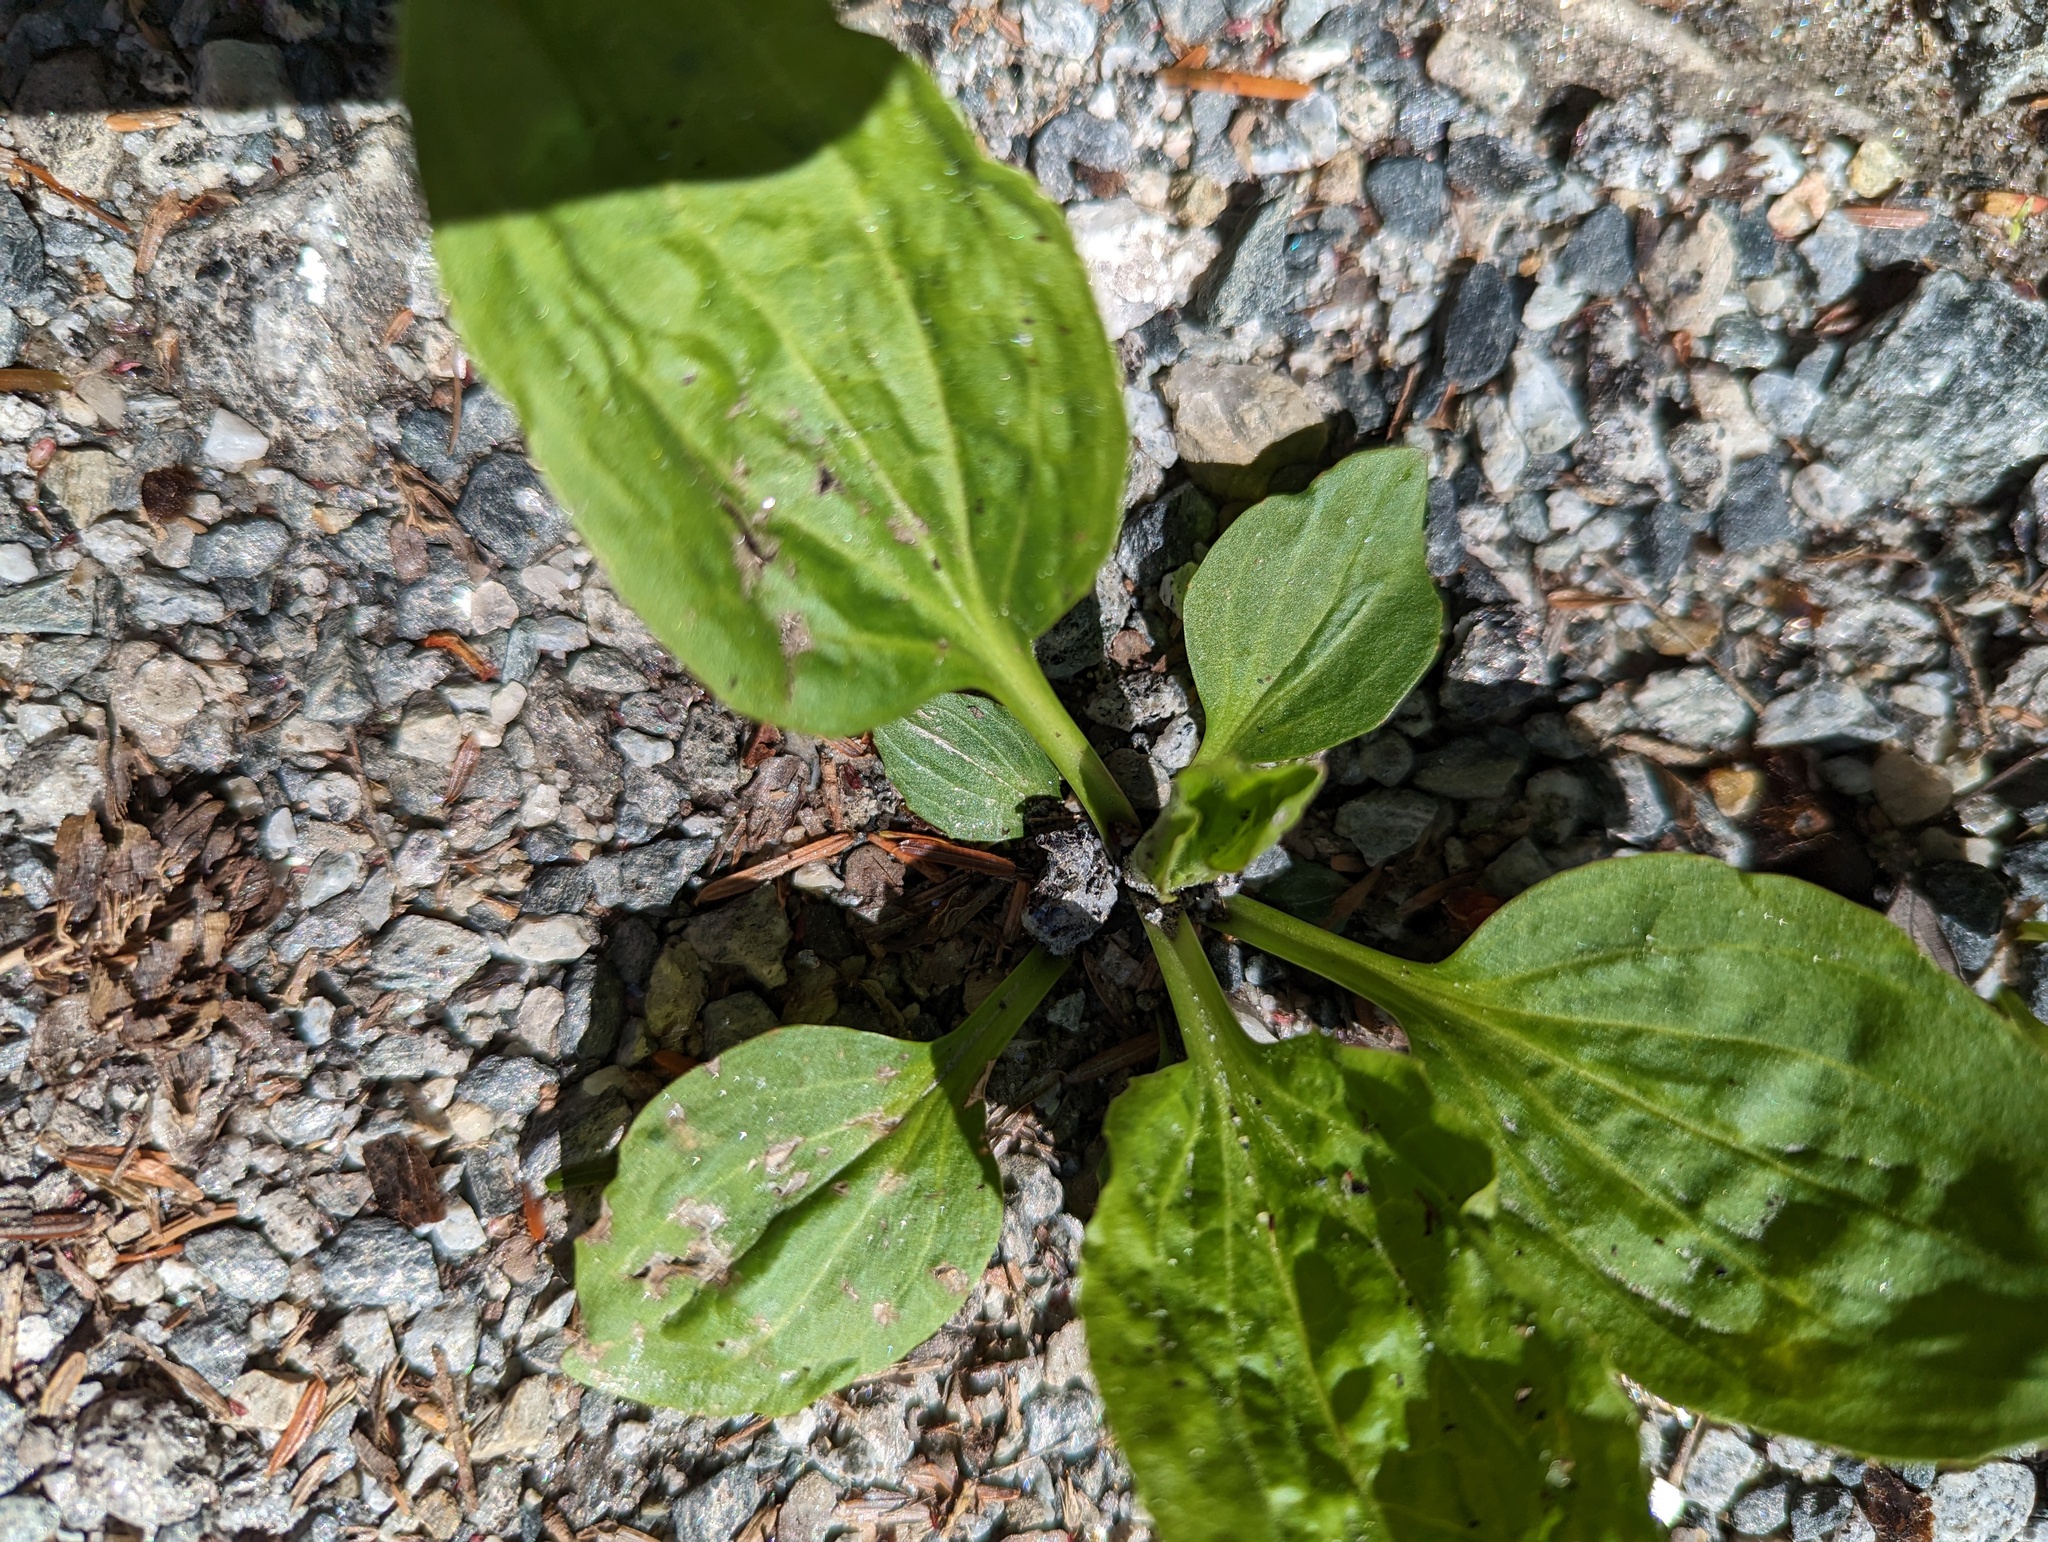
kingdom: Plantae
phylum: Tracheophyta
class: Magnoliopsida
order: Lamiales
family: Plantaginaceae
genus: Plantago
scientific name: Plantago major
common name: Common plantain
